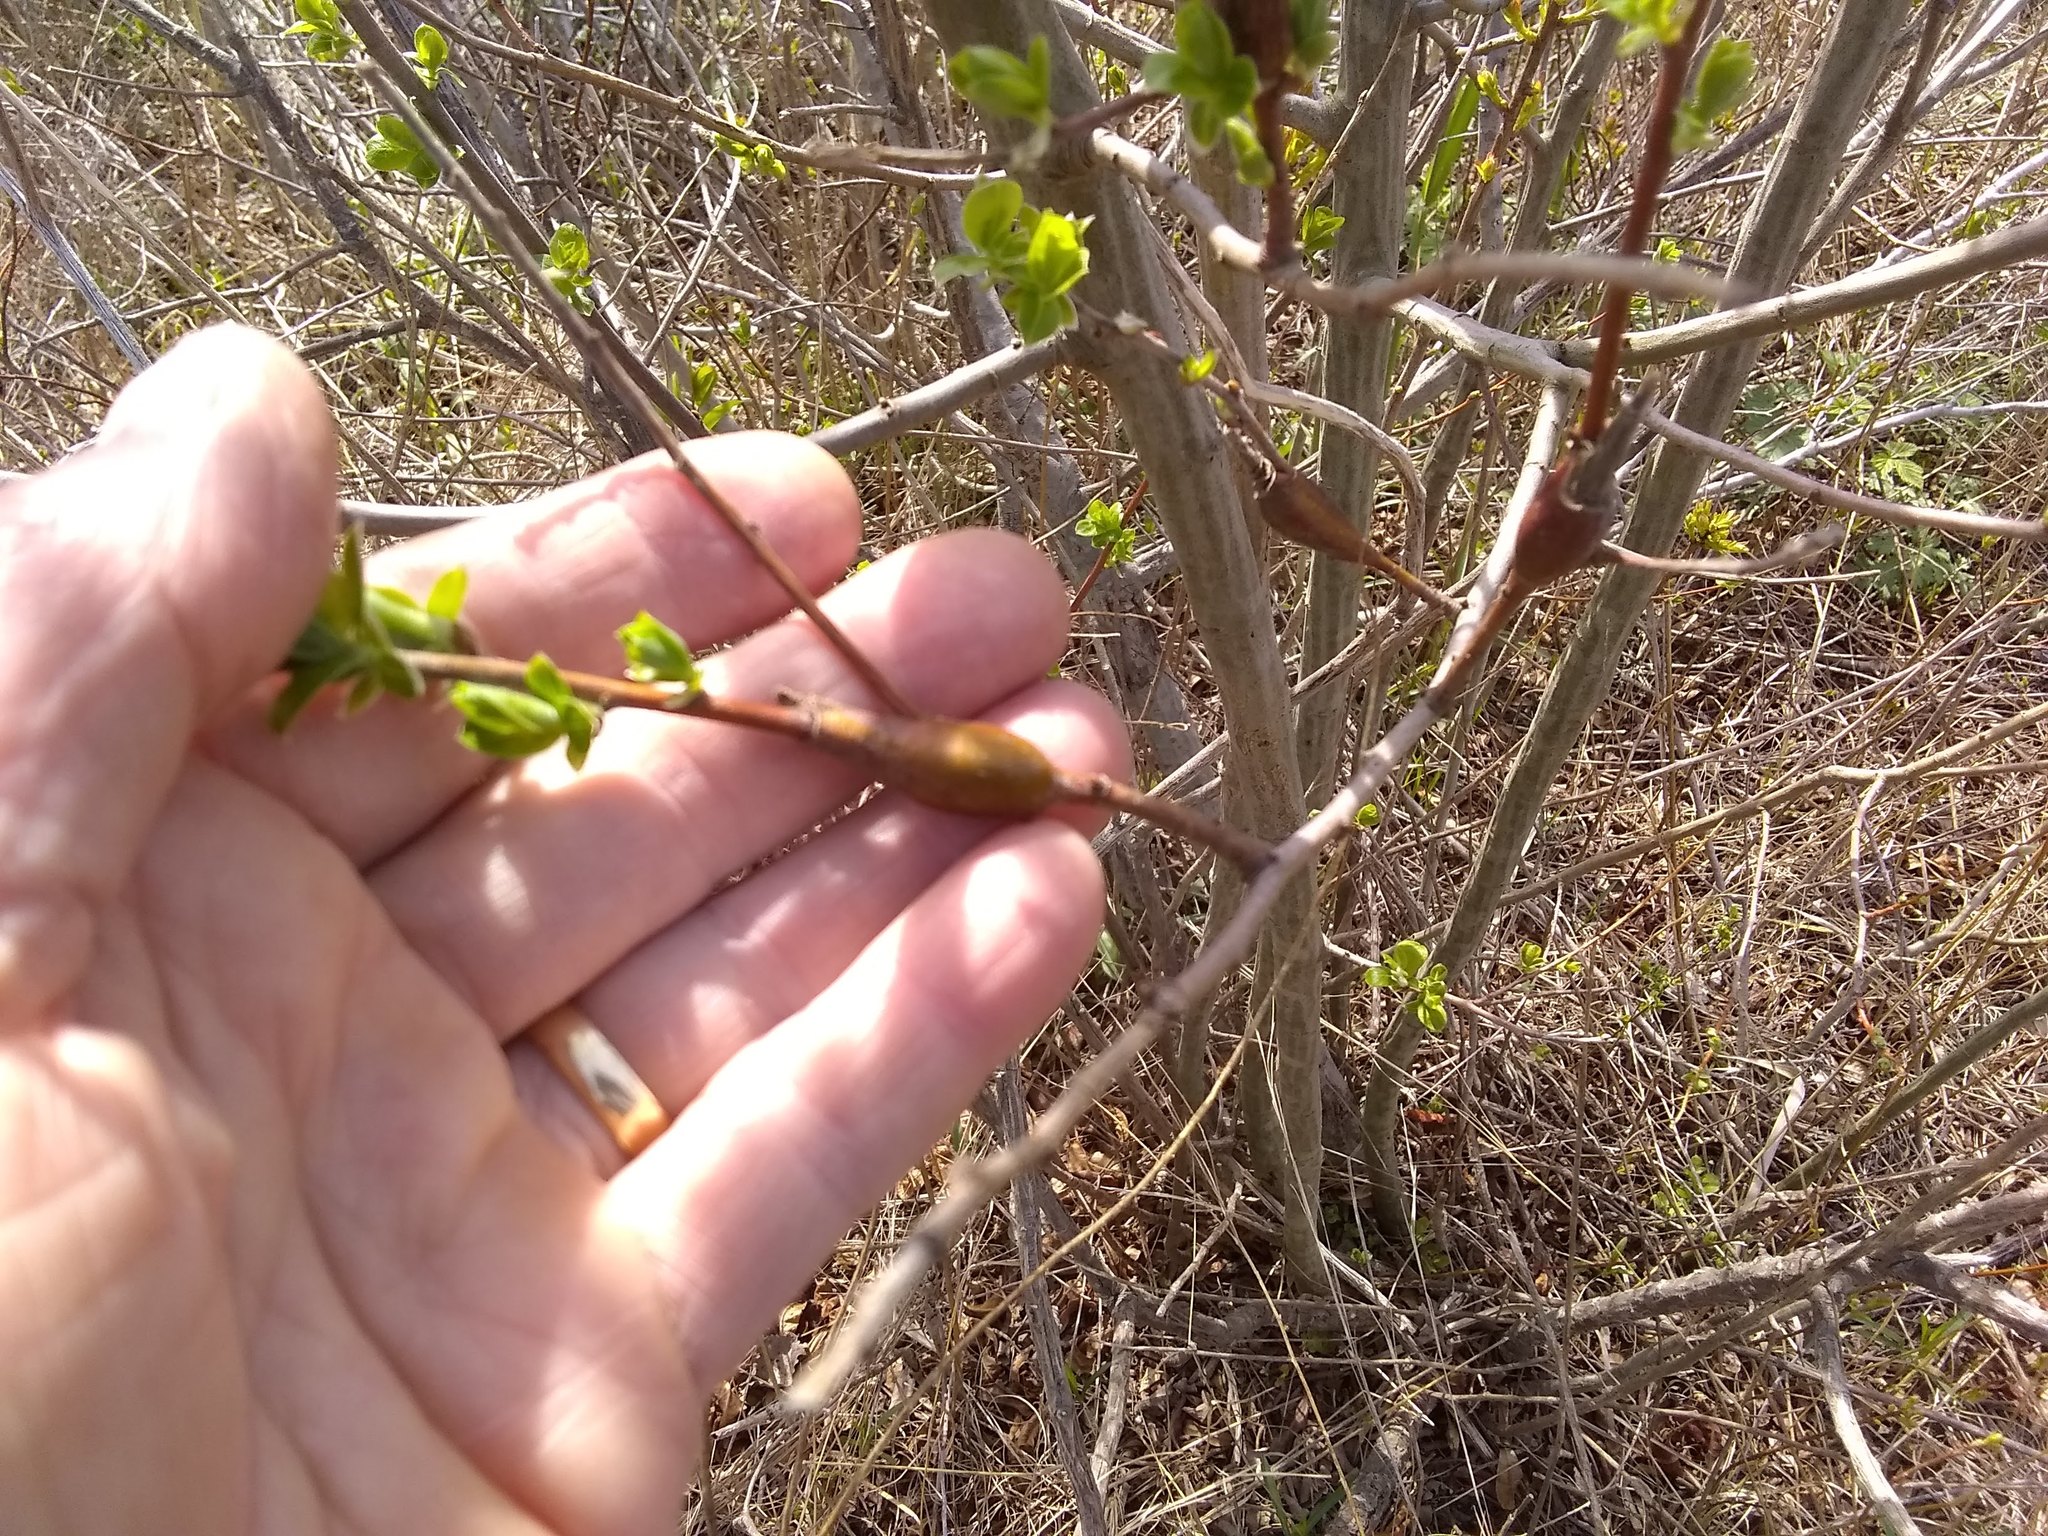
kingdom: Animalia
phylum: Arthropoda
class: Insecta
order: Diptera
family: Cecidomyiidae
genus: Thecodiplosis
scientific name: Thecodiplosis pinirigidae
